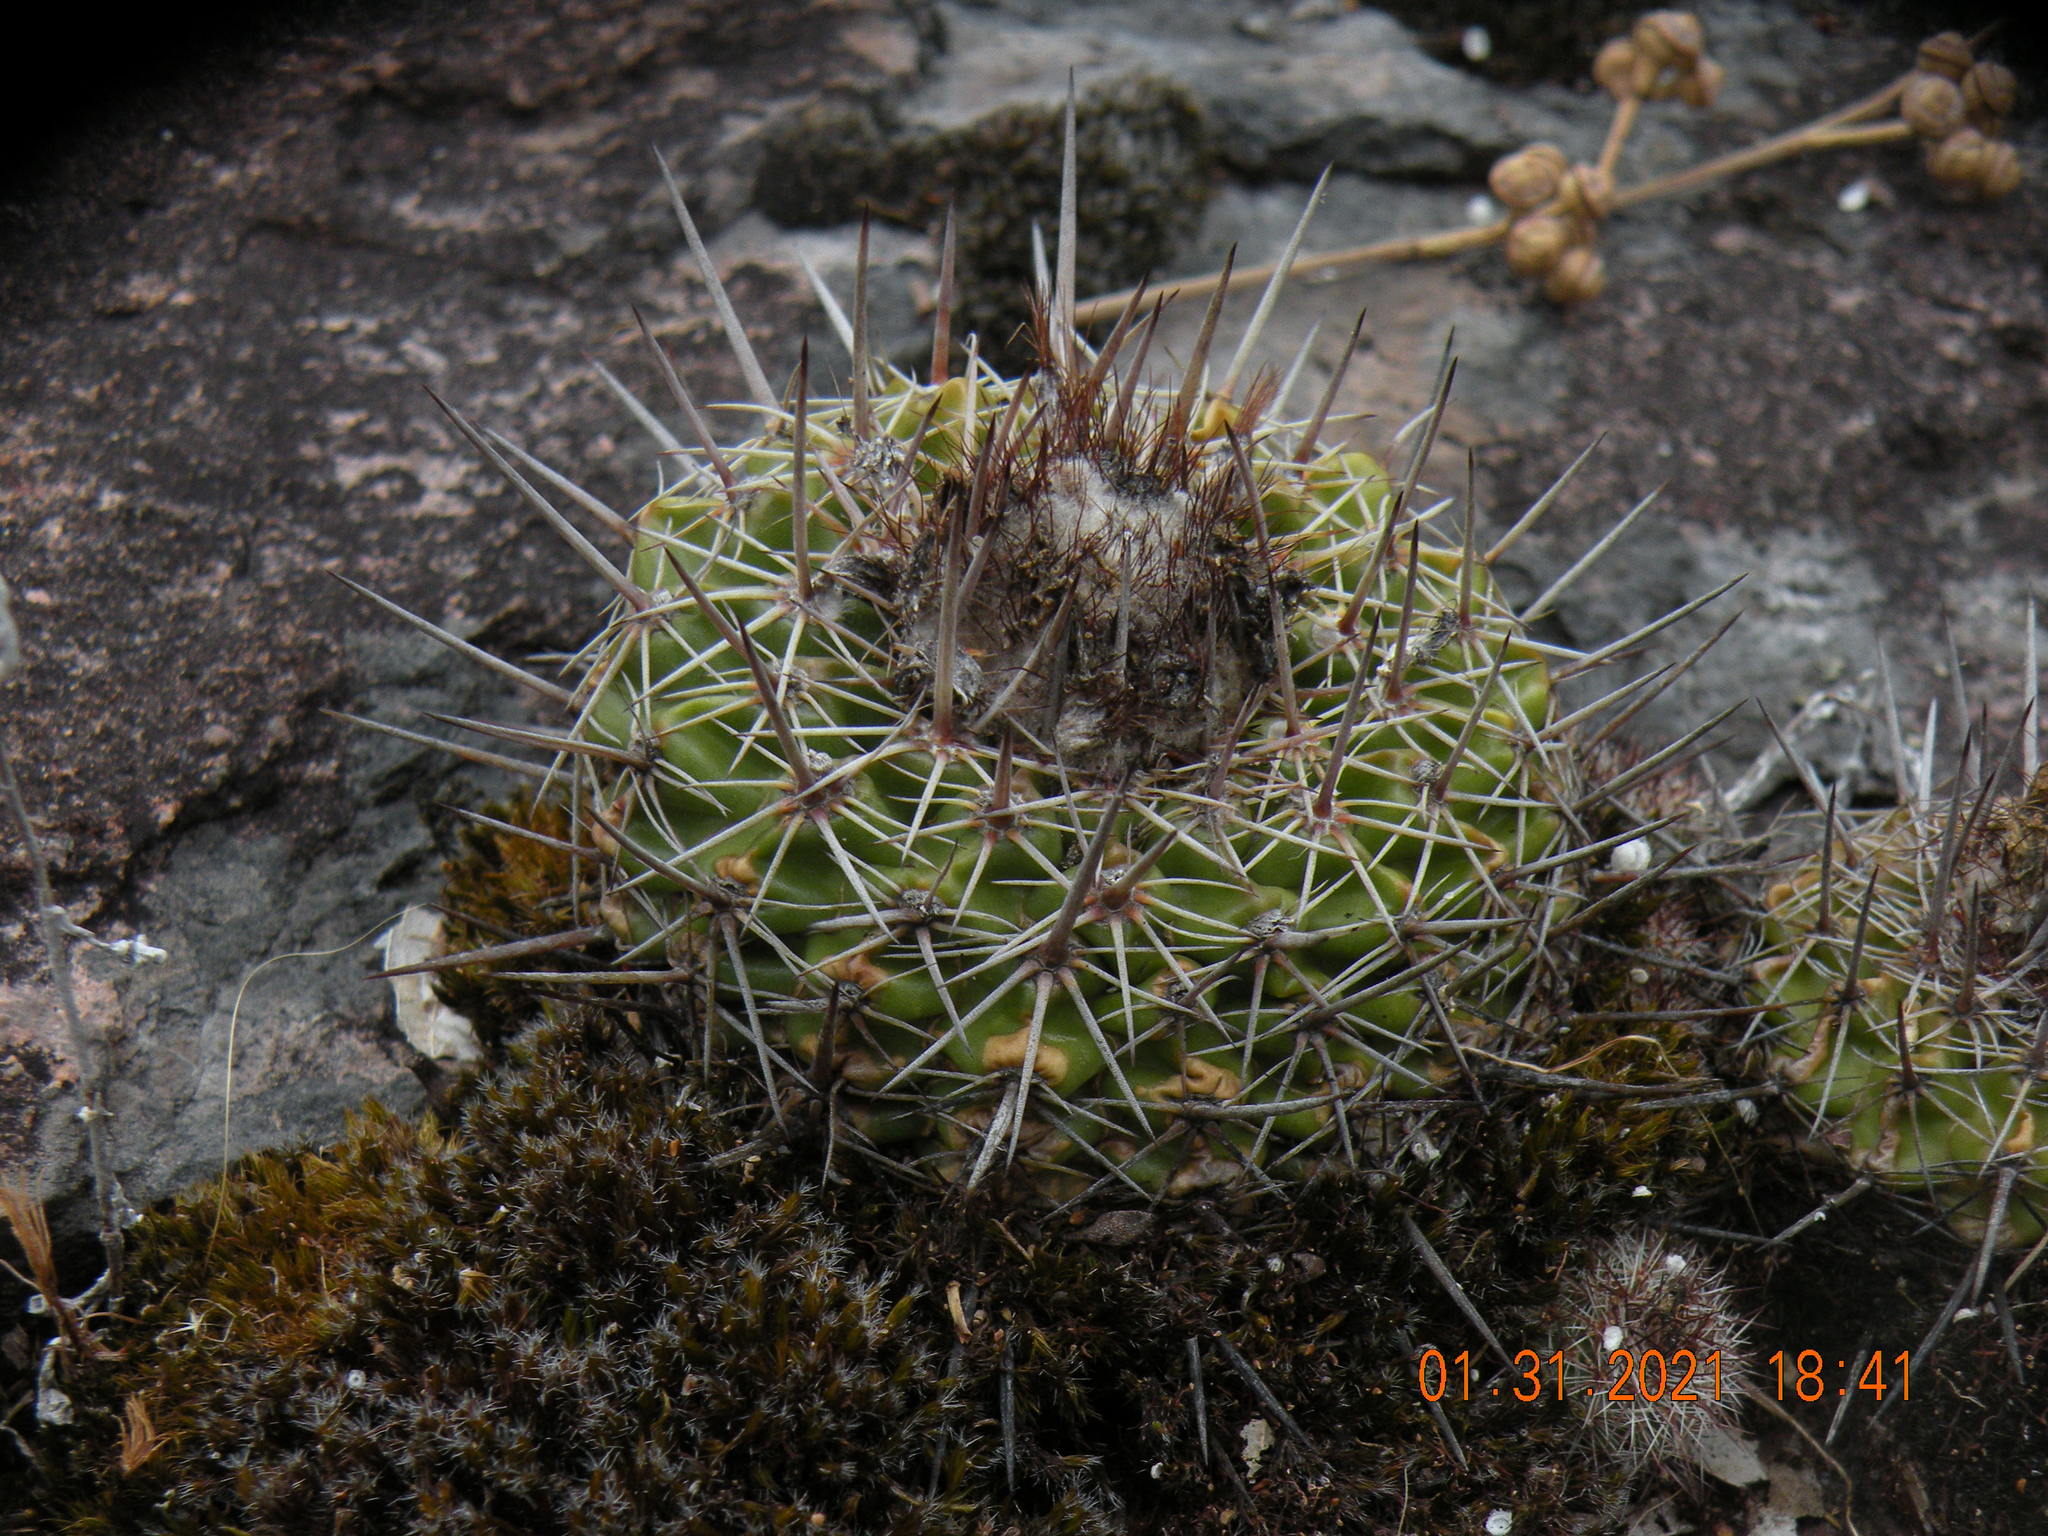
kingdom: Plantae
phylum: Tracheophyta
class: Magnoliopsida
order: Caryophyllales
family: Cactaceae
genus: Parodia
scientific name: Parodia neoarechavaletae
